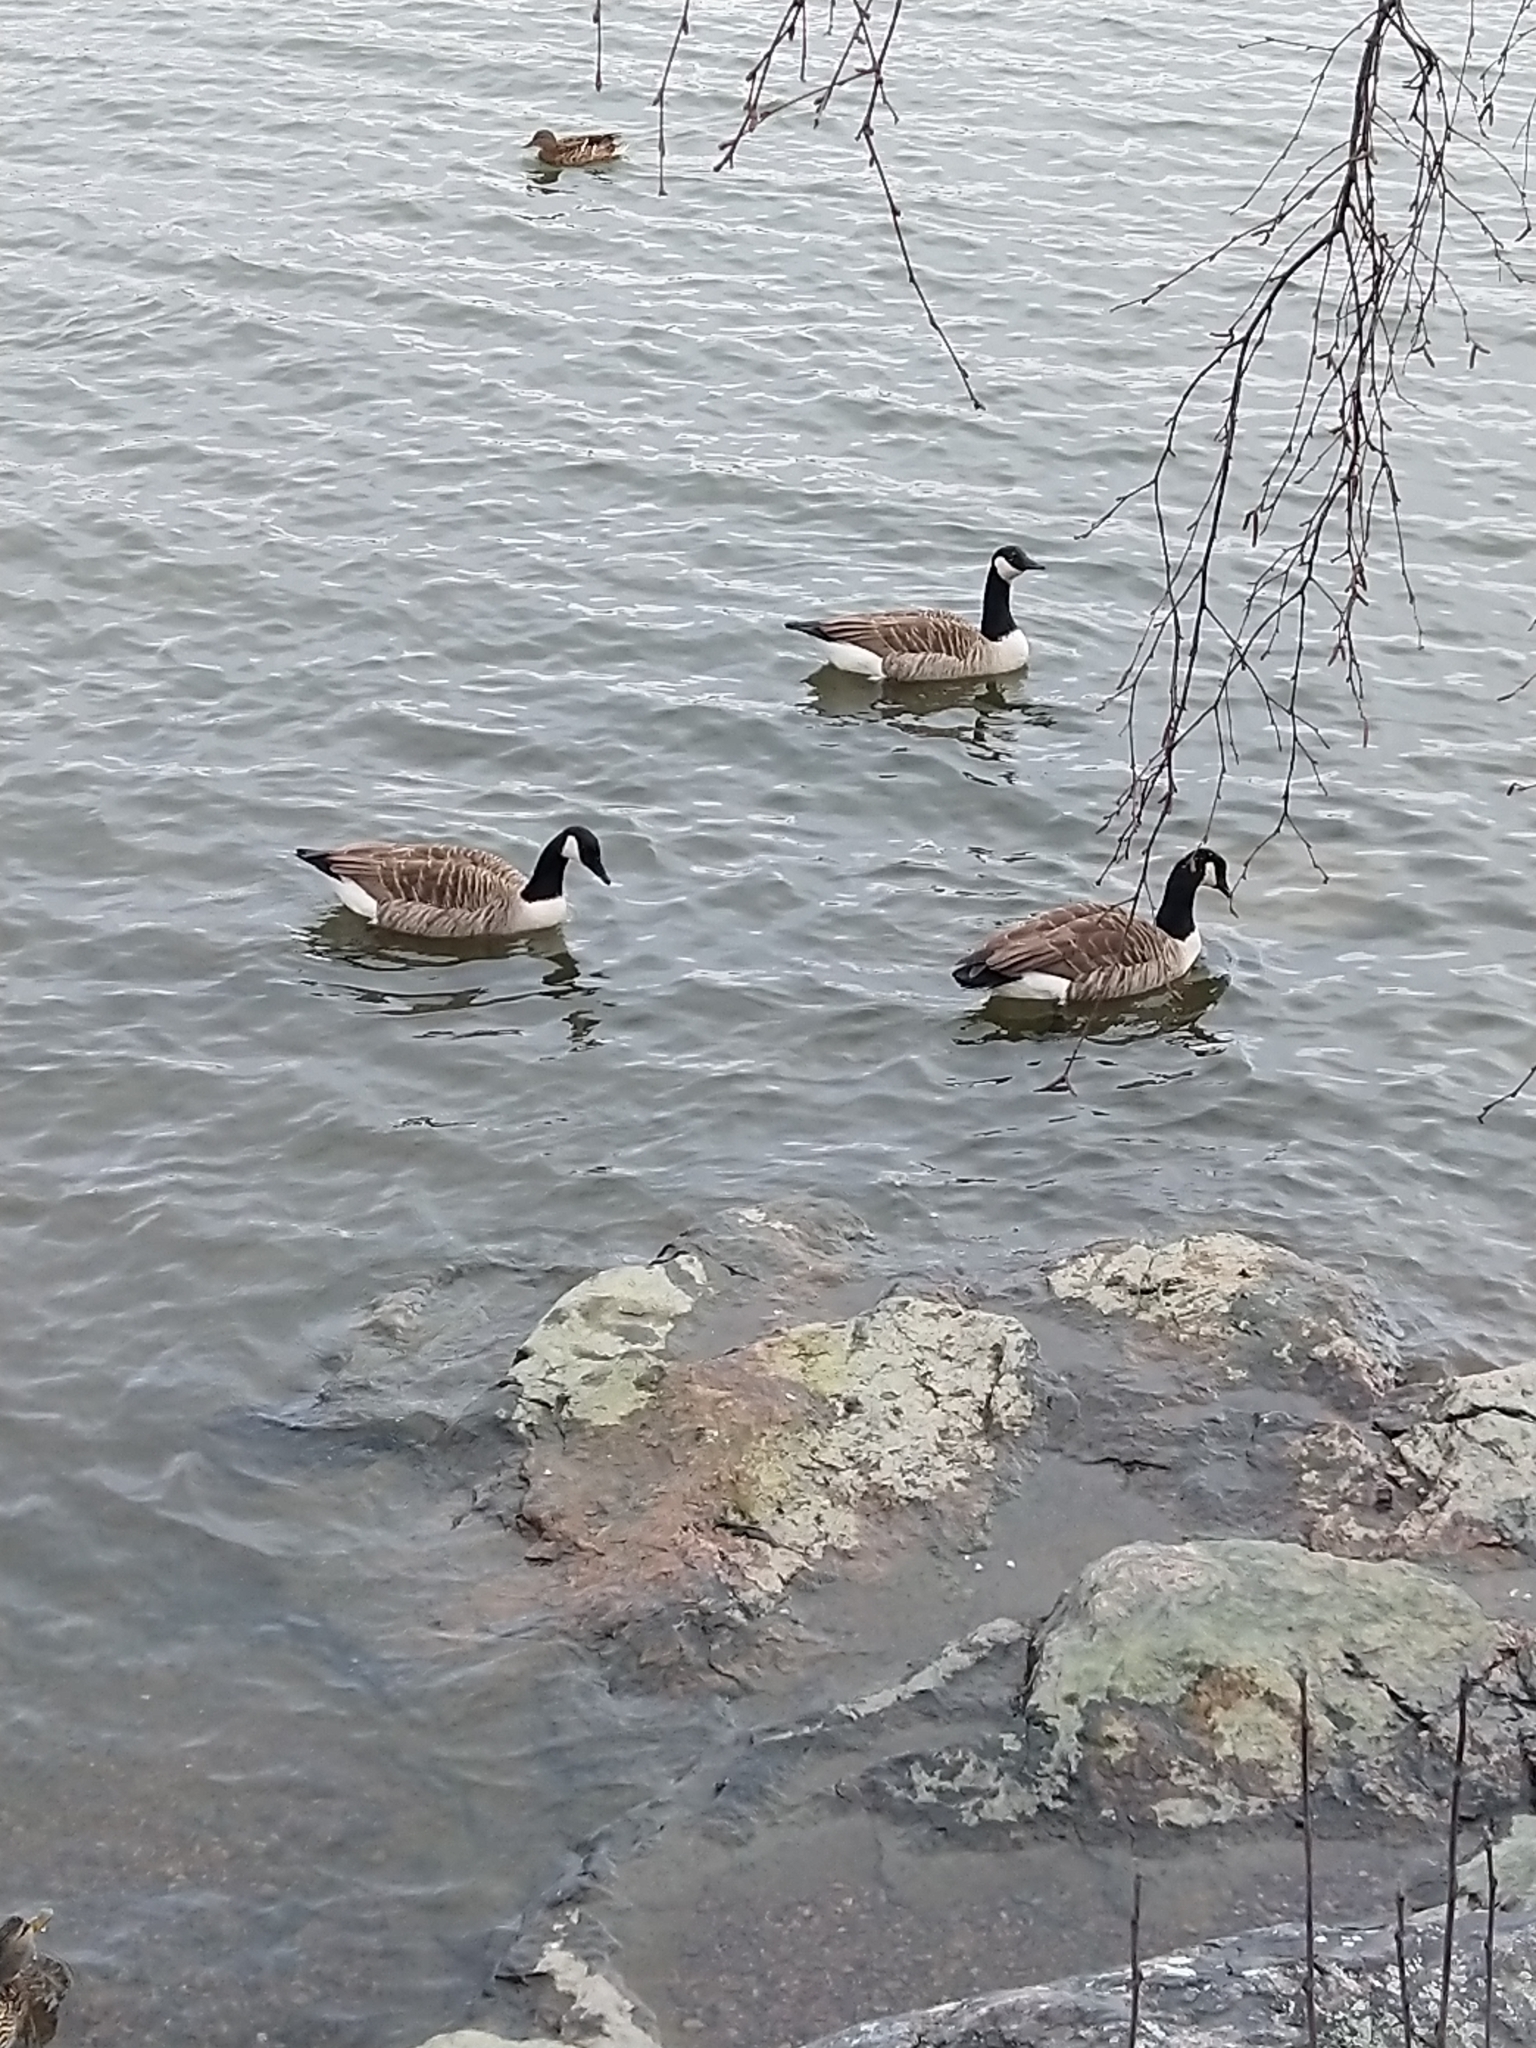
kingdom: Animalia
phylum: Chordata
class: Aves
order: Anseriformes
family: Anatidae
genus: Branta
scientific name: Branta canadensis
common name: Canada goose
